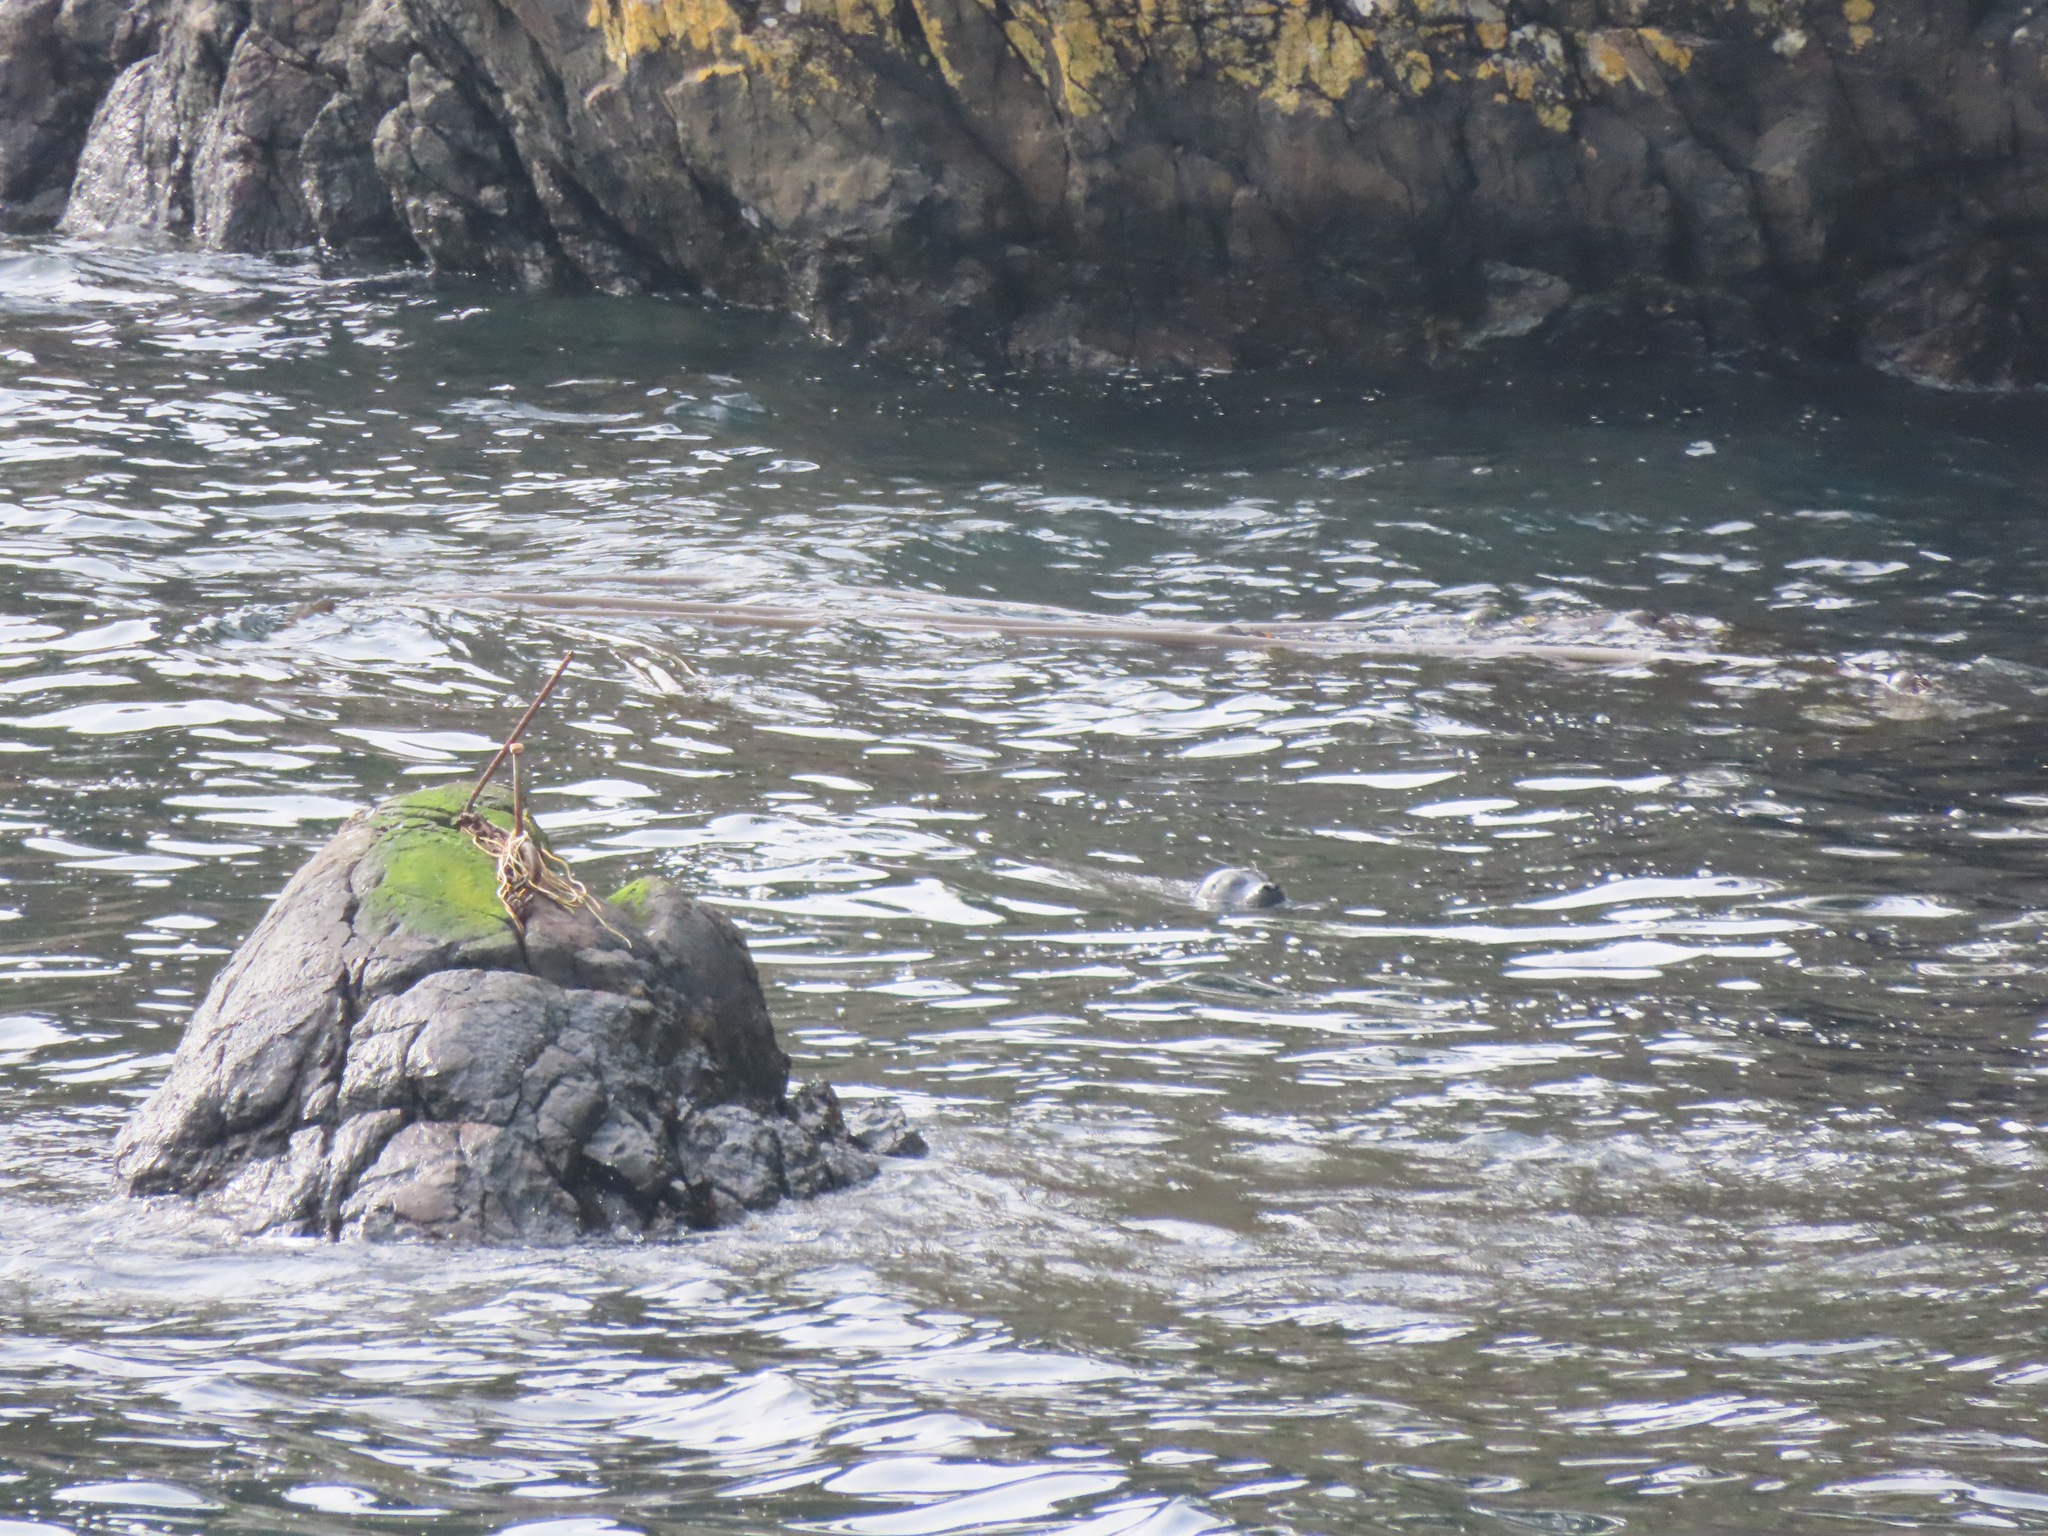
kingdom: Animalia
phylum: Chordata
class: Mammalia
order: Carnivora
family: Phocidae
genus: Phoca
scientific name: Phoca vitulina
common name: Harbor seal
